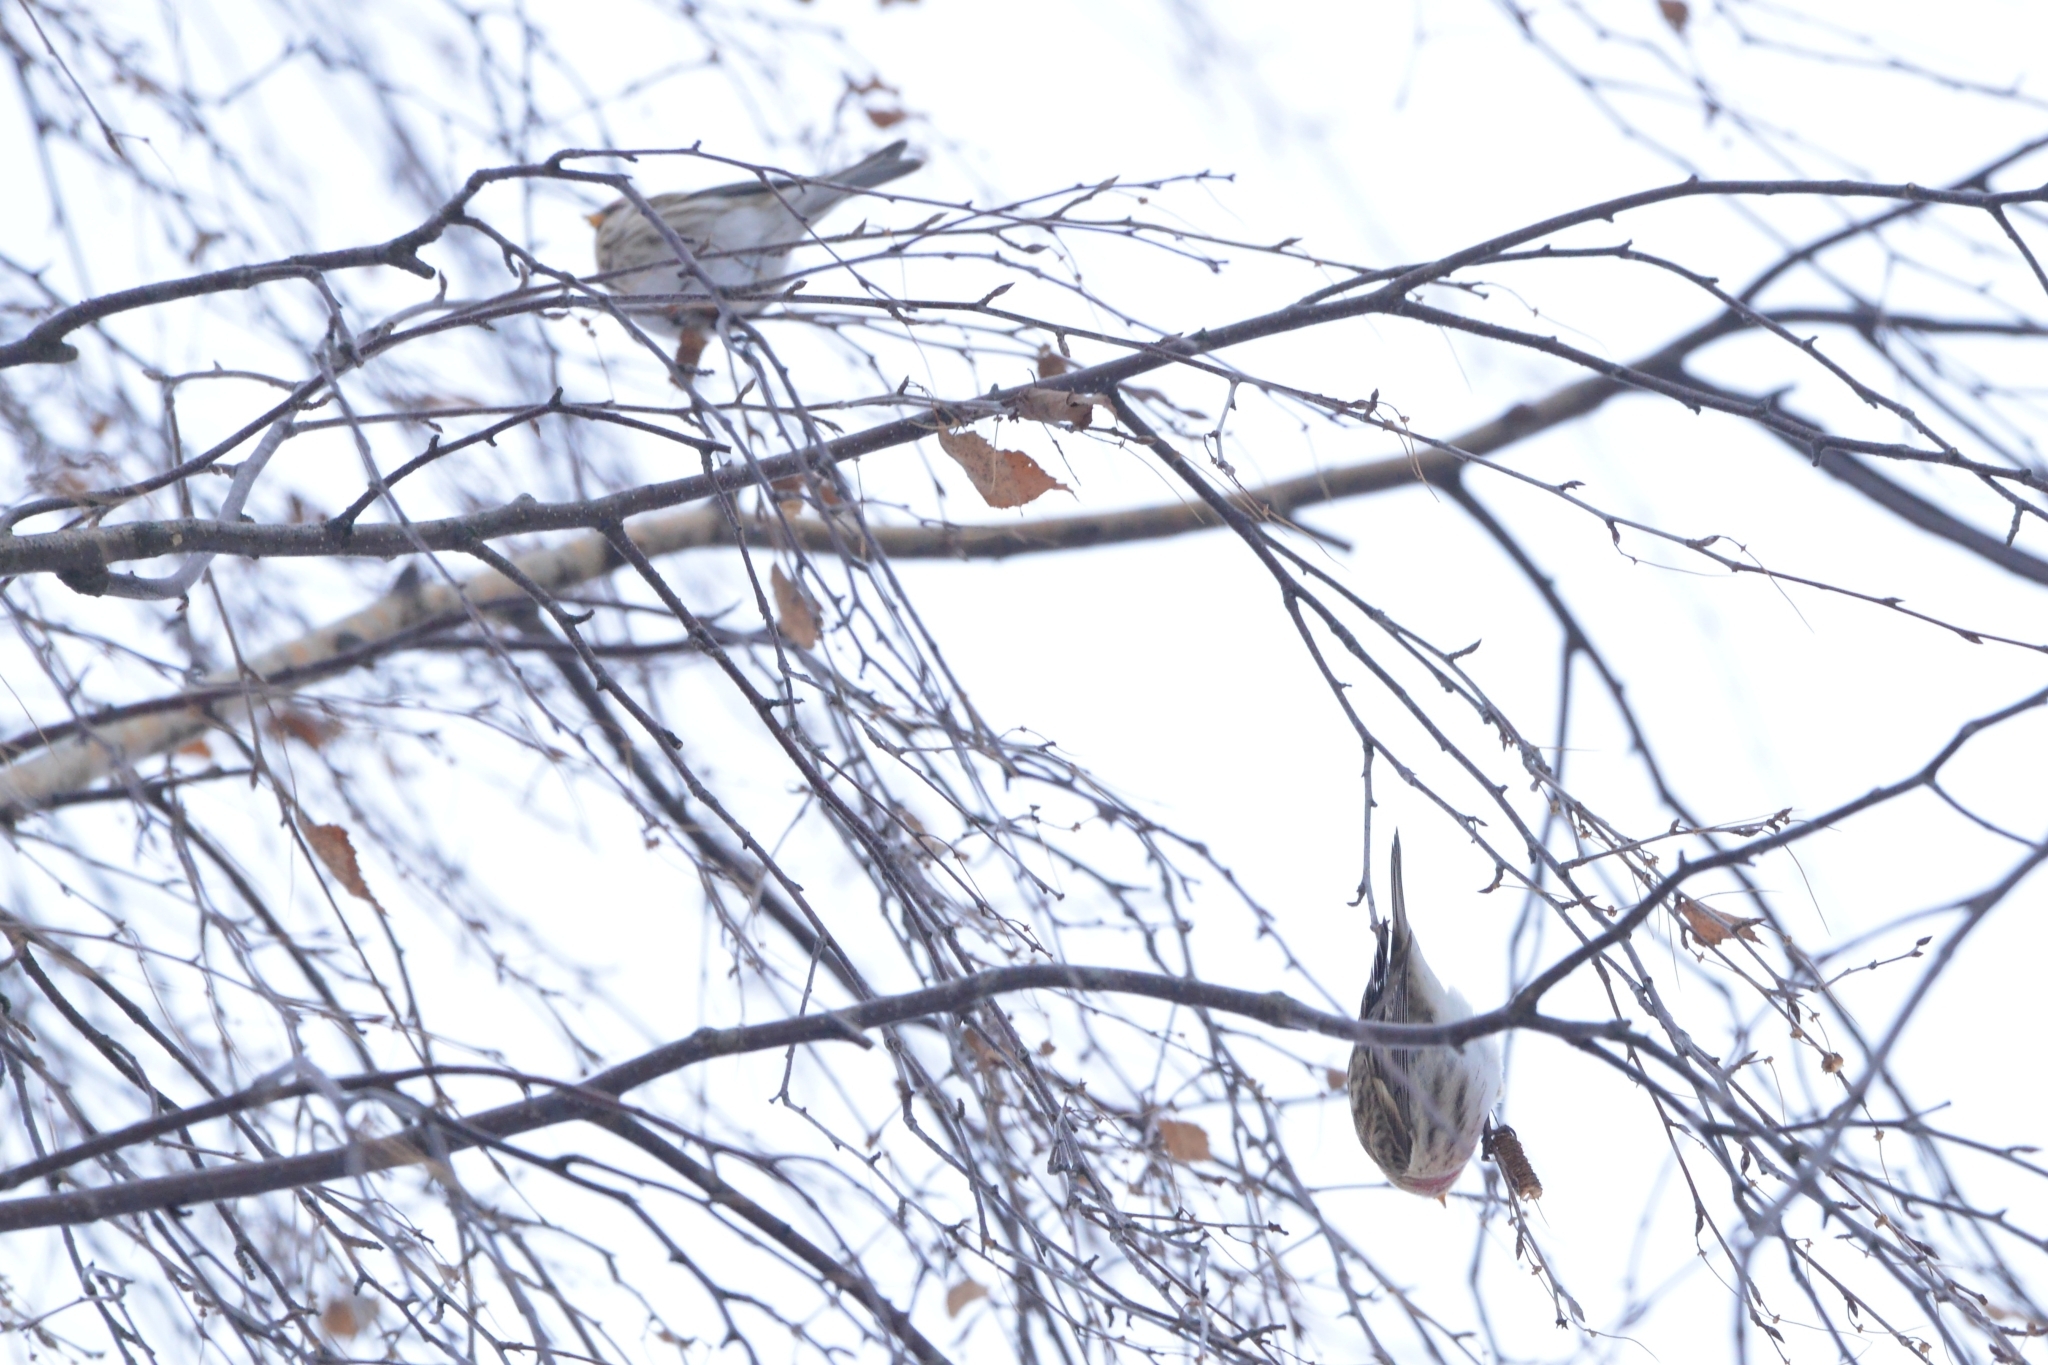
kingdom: Animalia
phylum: Chordata
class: Aves
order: Passeriformes
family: Fringillidae
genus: Acanthis
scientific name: Acanthis flammea
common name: Common redpoll
